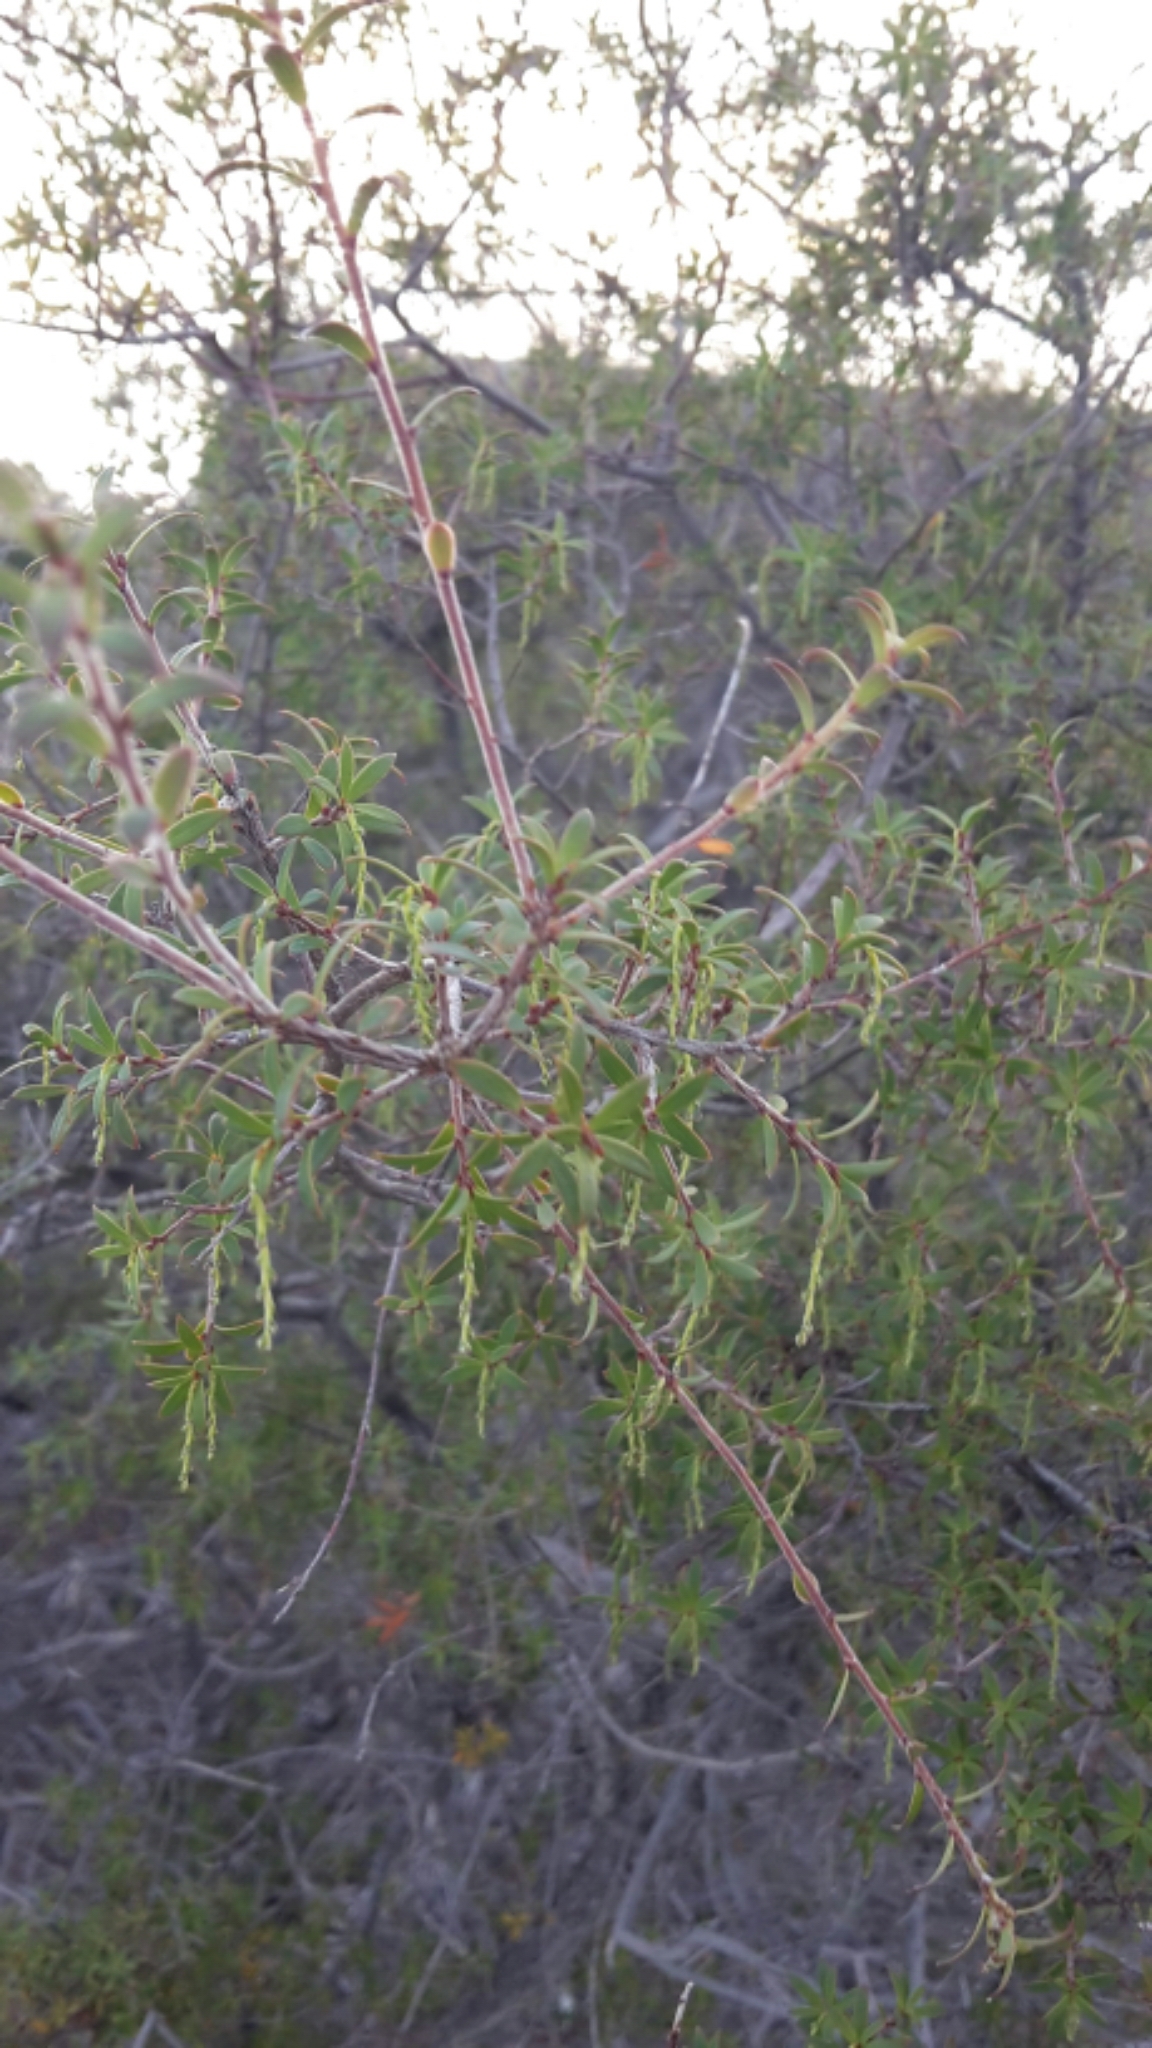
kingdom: Plantae
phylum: Tracheophyta
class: Magnoliopsida
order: Ericales
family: Ericaceae
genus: Leucopogon
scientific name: Leucopogon fasciculatus
